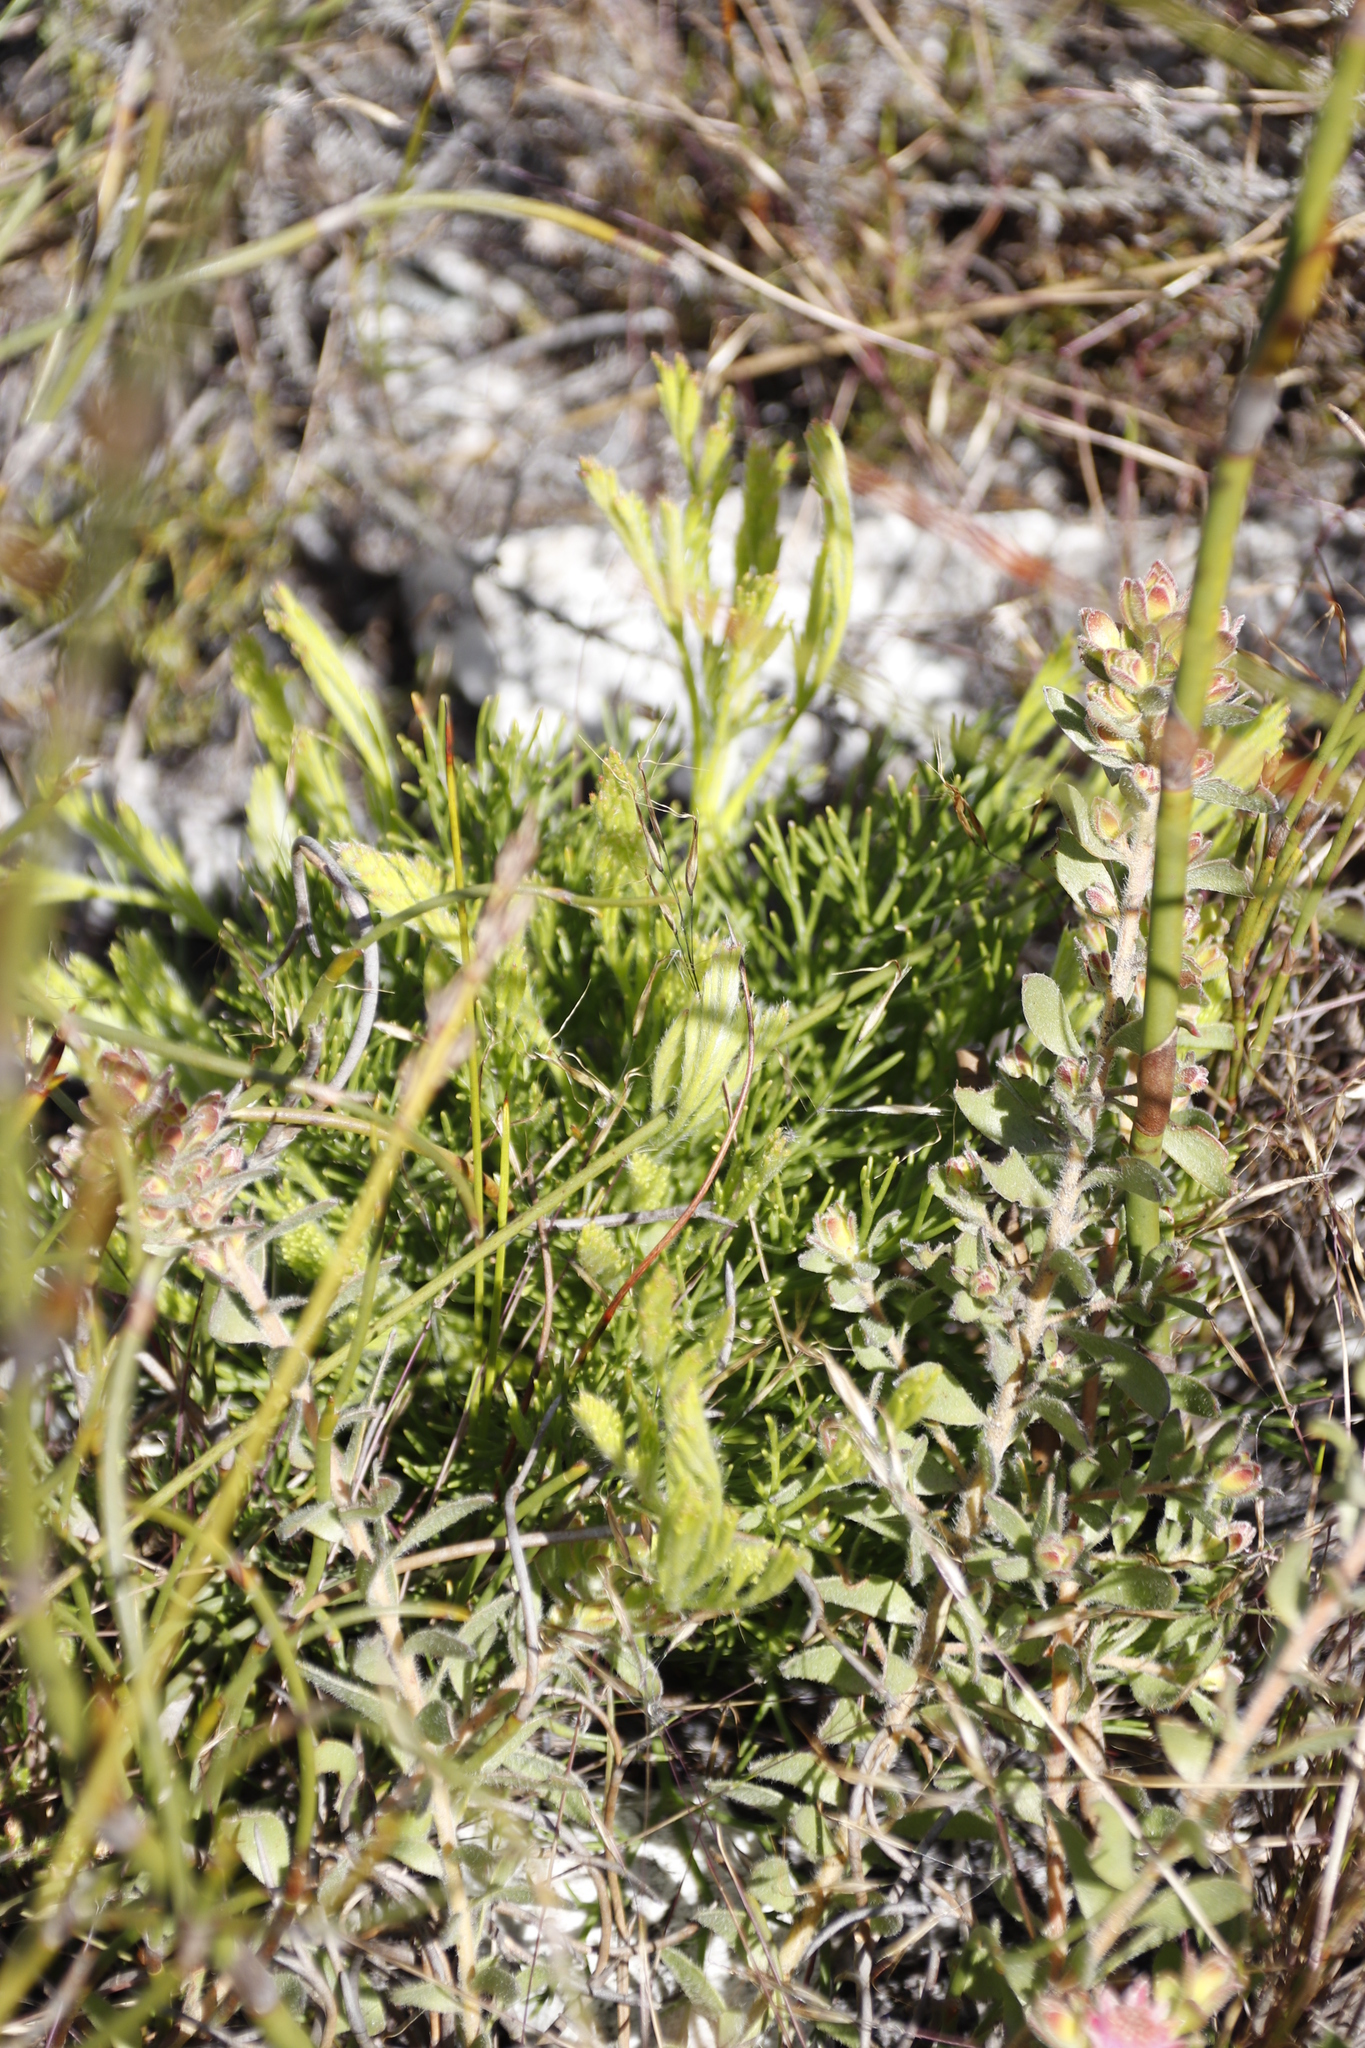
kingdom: Plantae
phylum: Tracheophyta
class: Magnoliopsida
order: Proteales
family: Proteaceae
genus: Serruria
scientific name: Serruria elongata
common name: Long-stalk spiderhead
